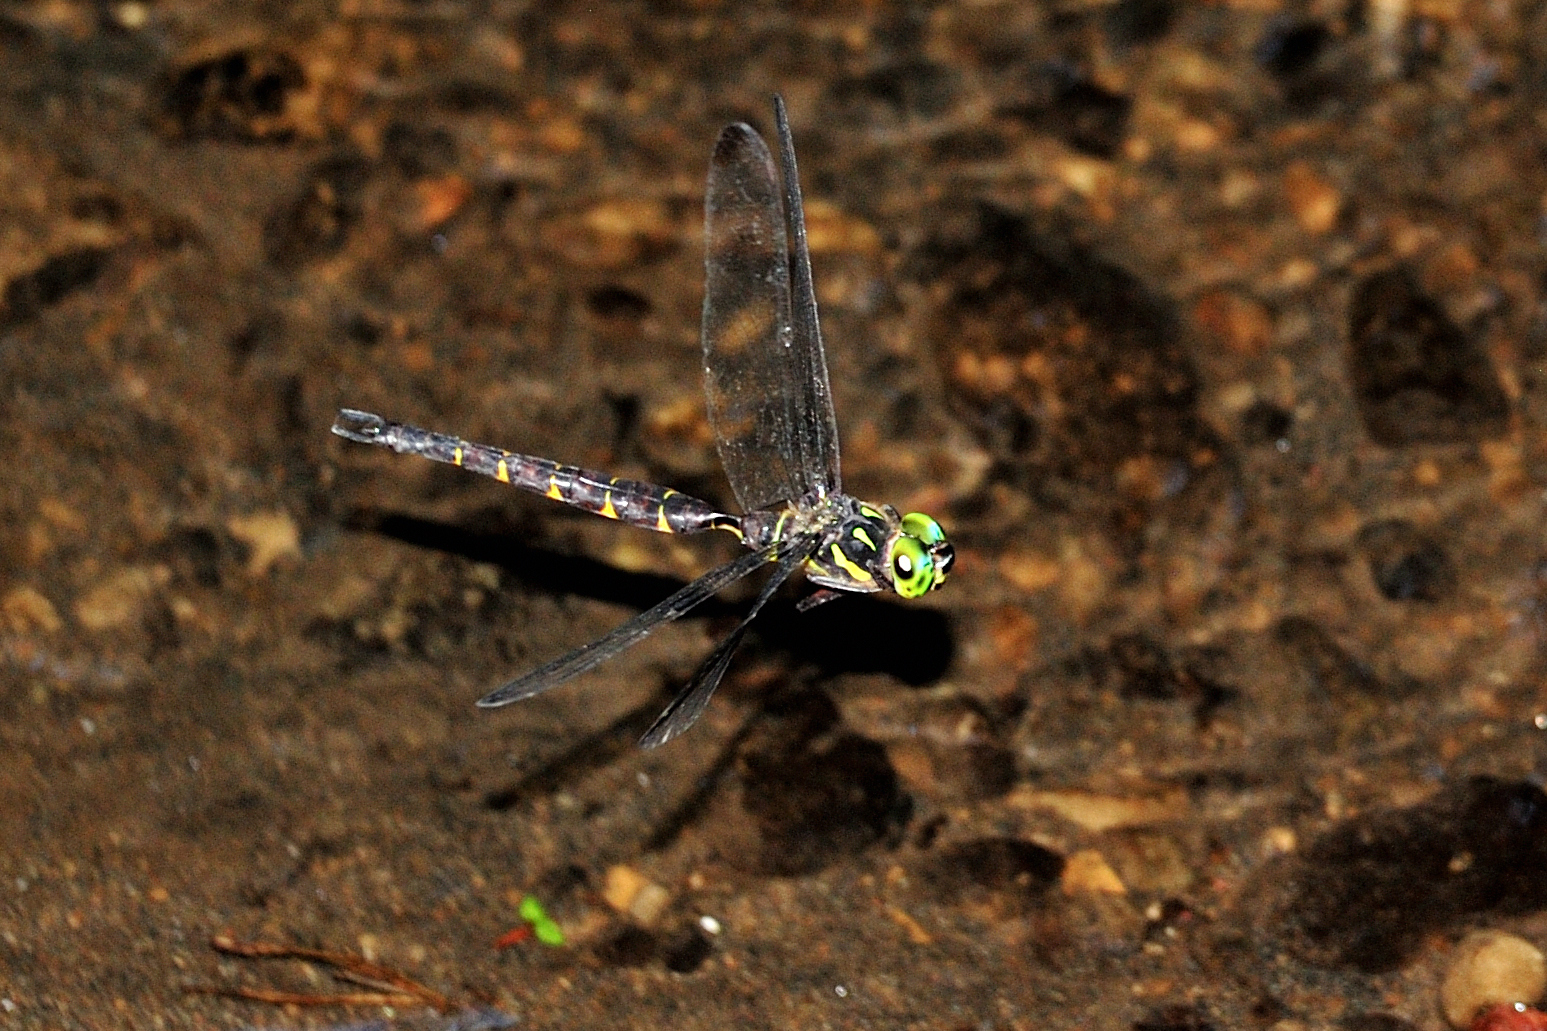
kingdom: Animalia
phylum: Arthropoda
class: Insecta
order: Odonata
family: Aeshnidae
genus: Boyeria
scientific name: Boyeria maclachlani
